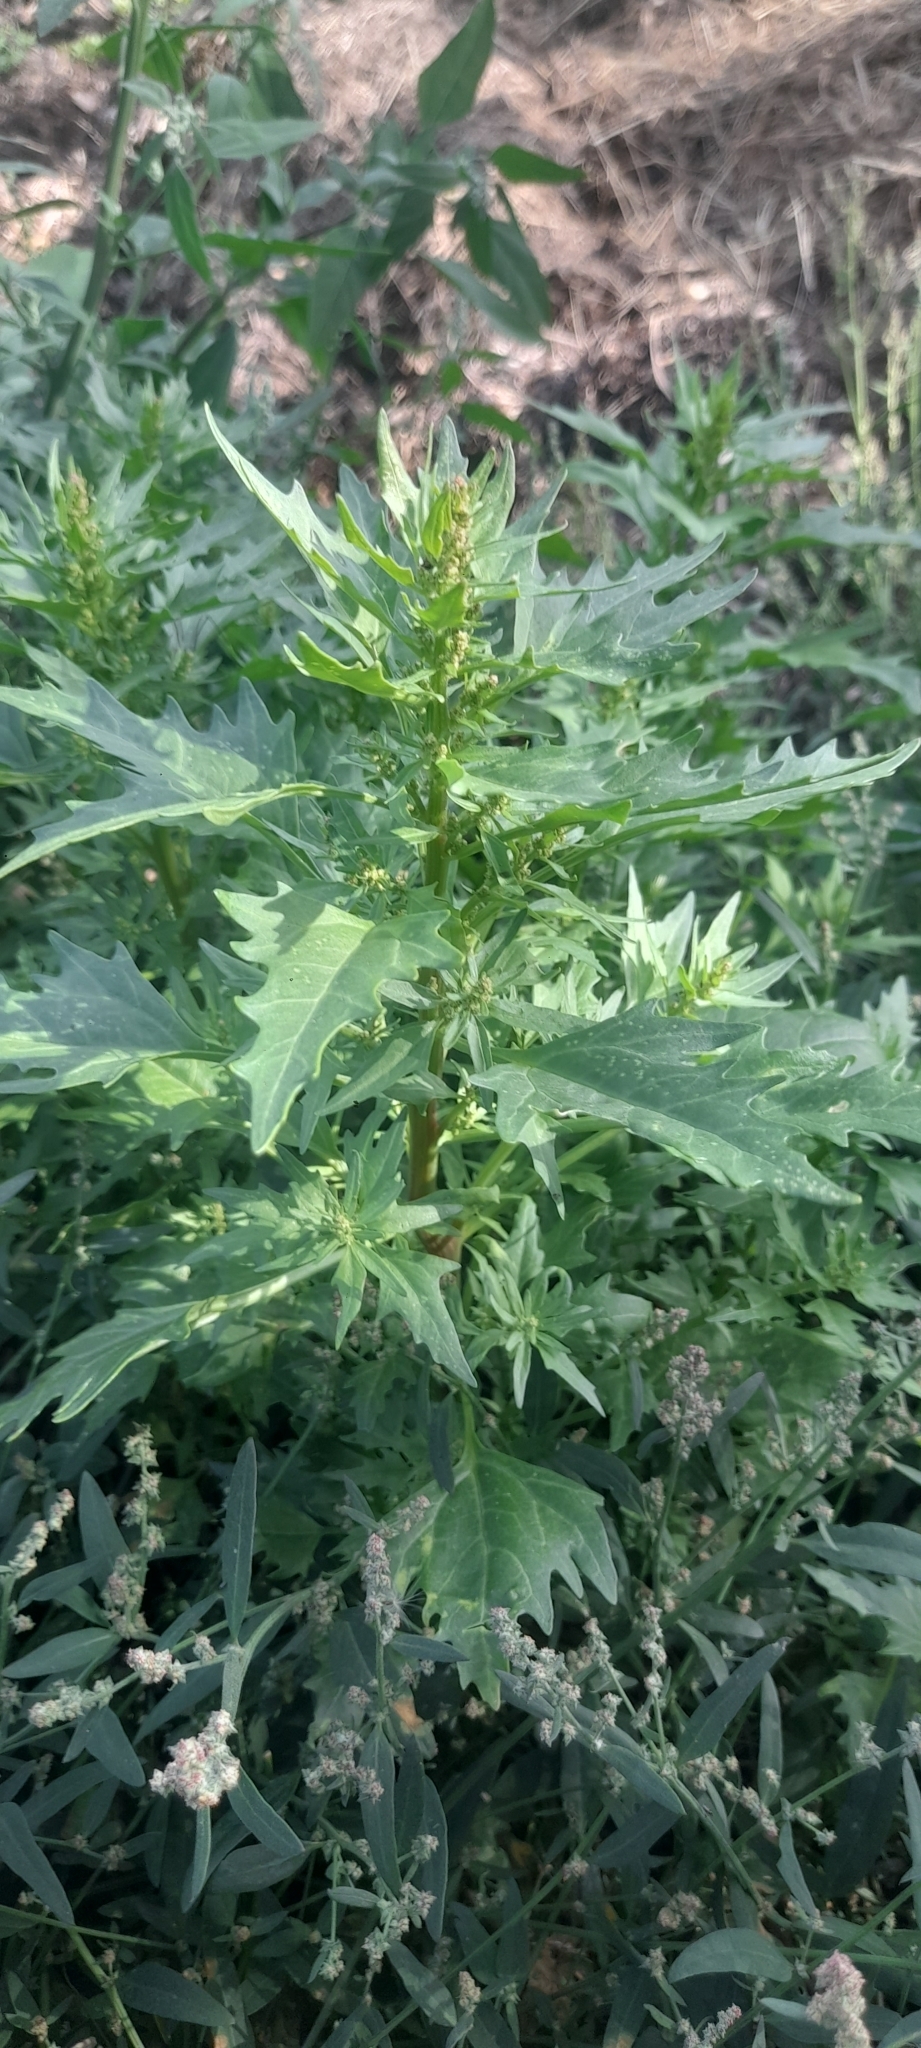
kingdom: Plantae
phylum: Tracheophyta
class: Magnoliopsida
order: Caryophyllales
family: Amaranthaceae
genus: Oxybasis
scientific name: Oxybasis rubra
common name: Red goosefoot
